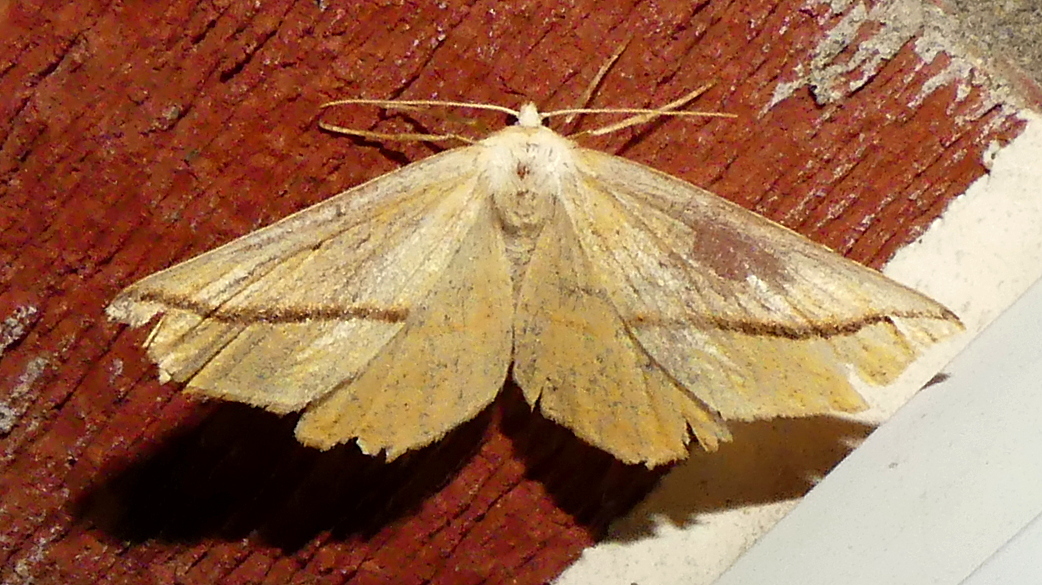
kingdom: Animalia
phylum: Arthropoda
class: Insecta
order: Lepidoptera
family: Geometridae
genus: Tetracis
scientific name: Tetracis crocallata
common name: Yellow slant-line
